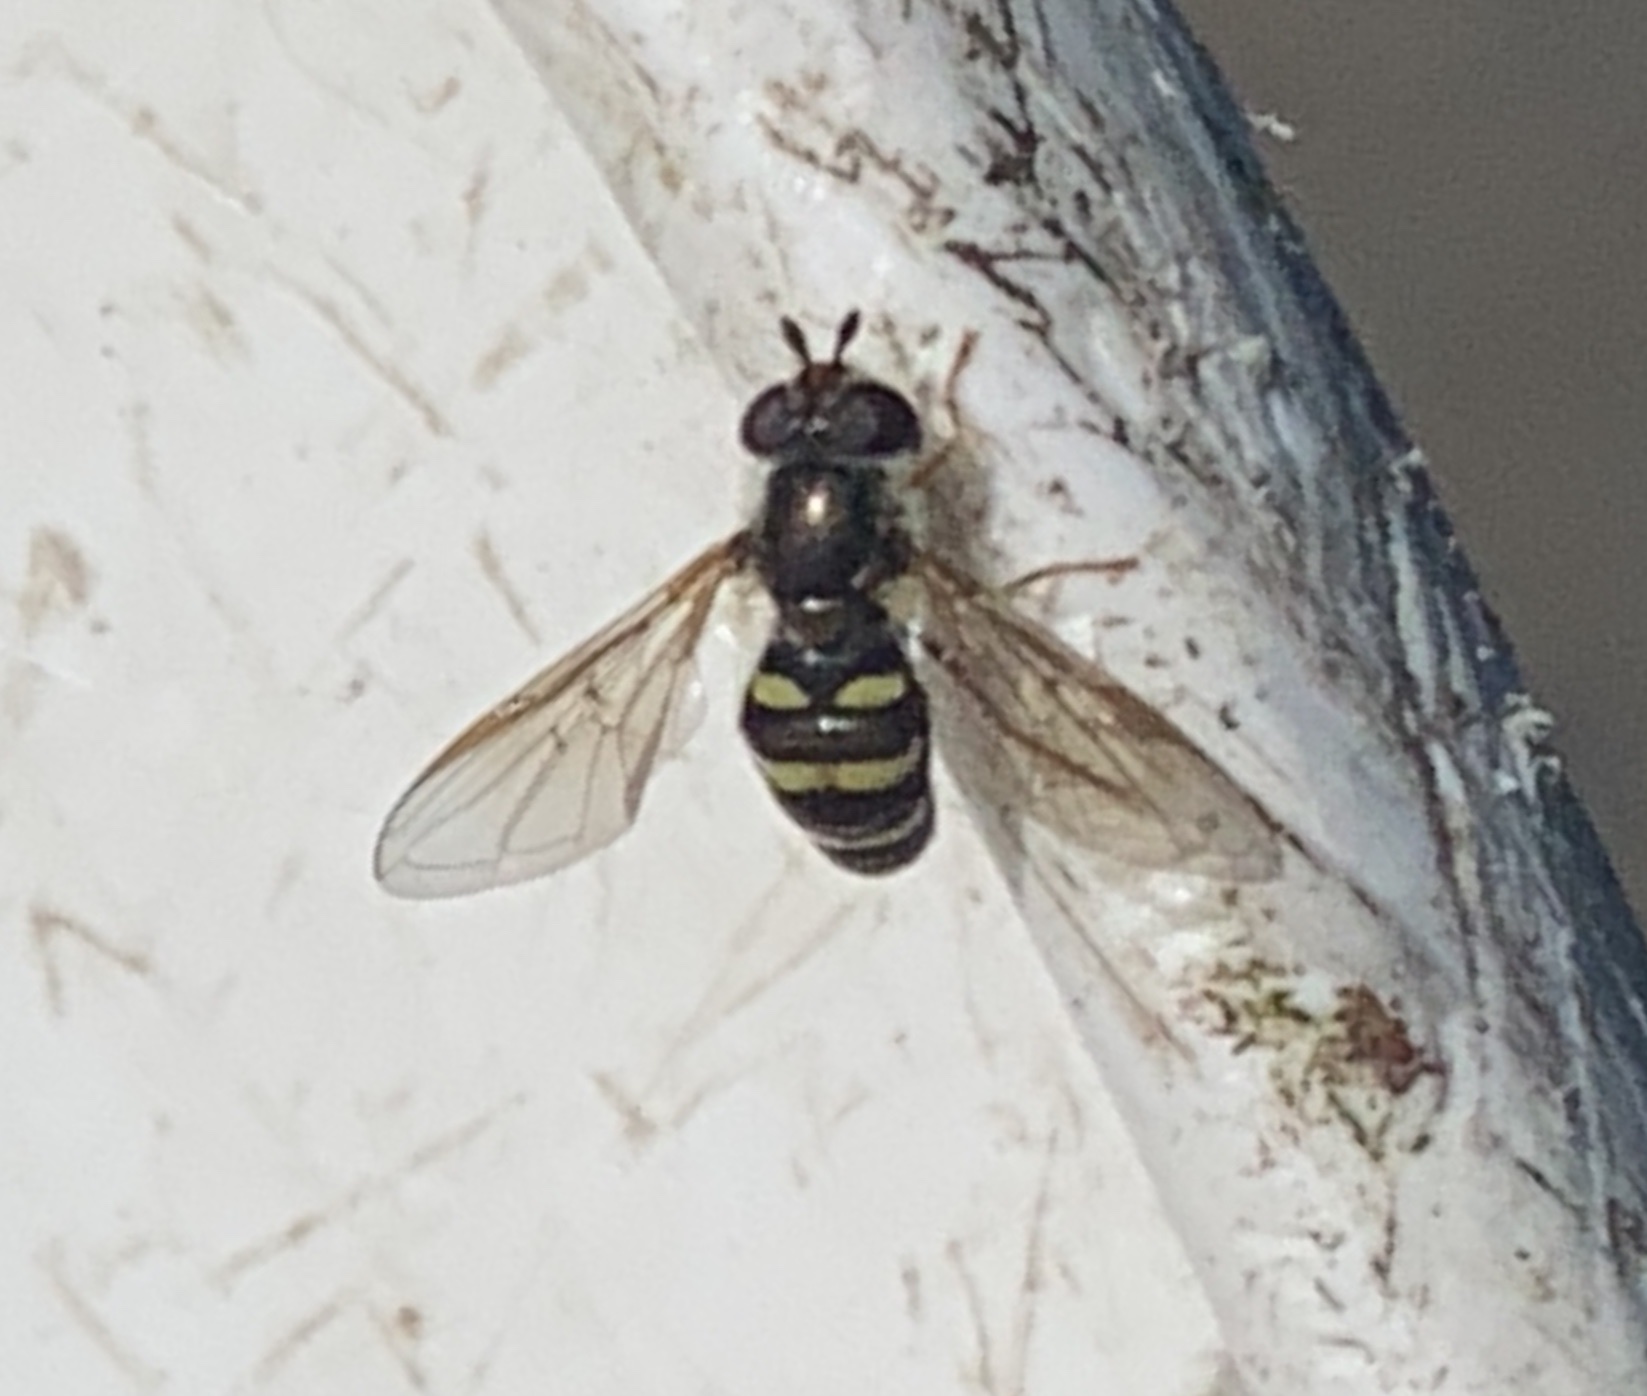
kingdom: Animalia
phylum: Arthropoda
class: Insecta
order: Diptera
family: Syrphidae
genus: Eupeodes
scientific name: Eupeodes
